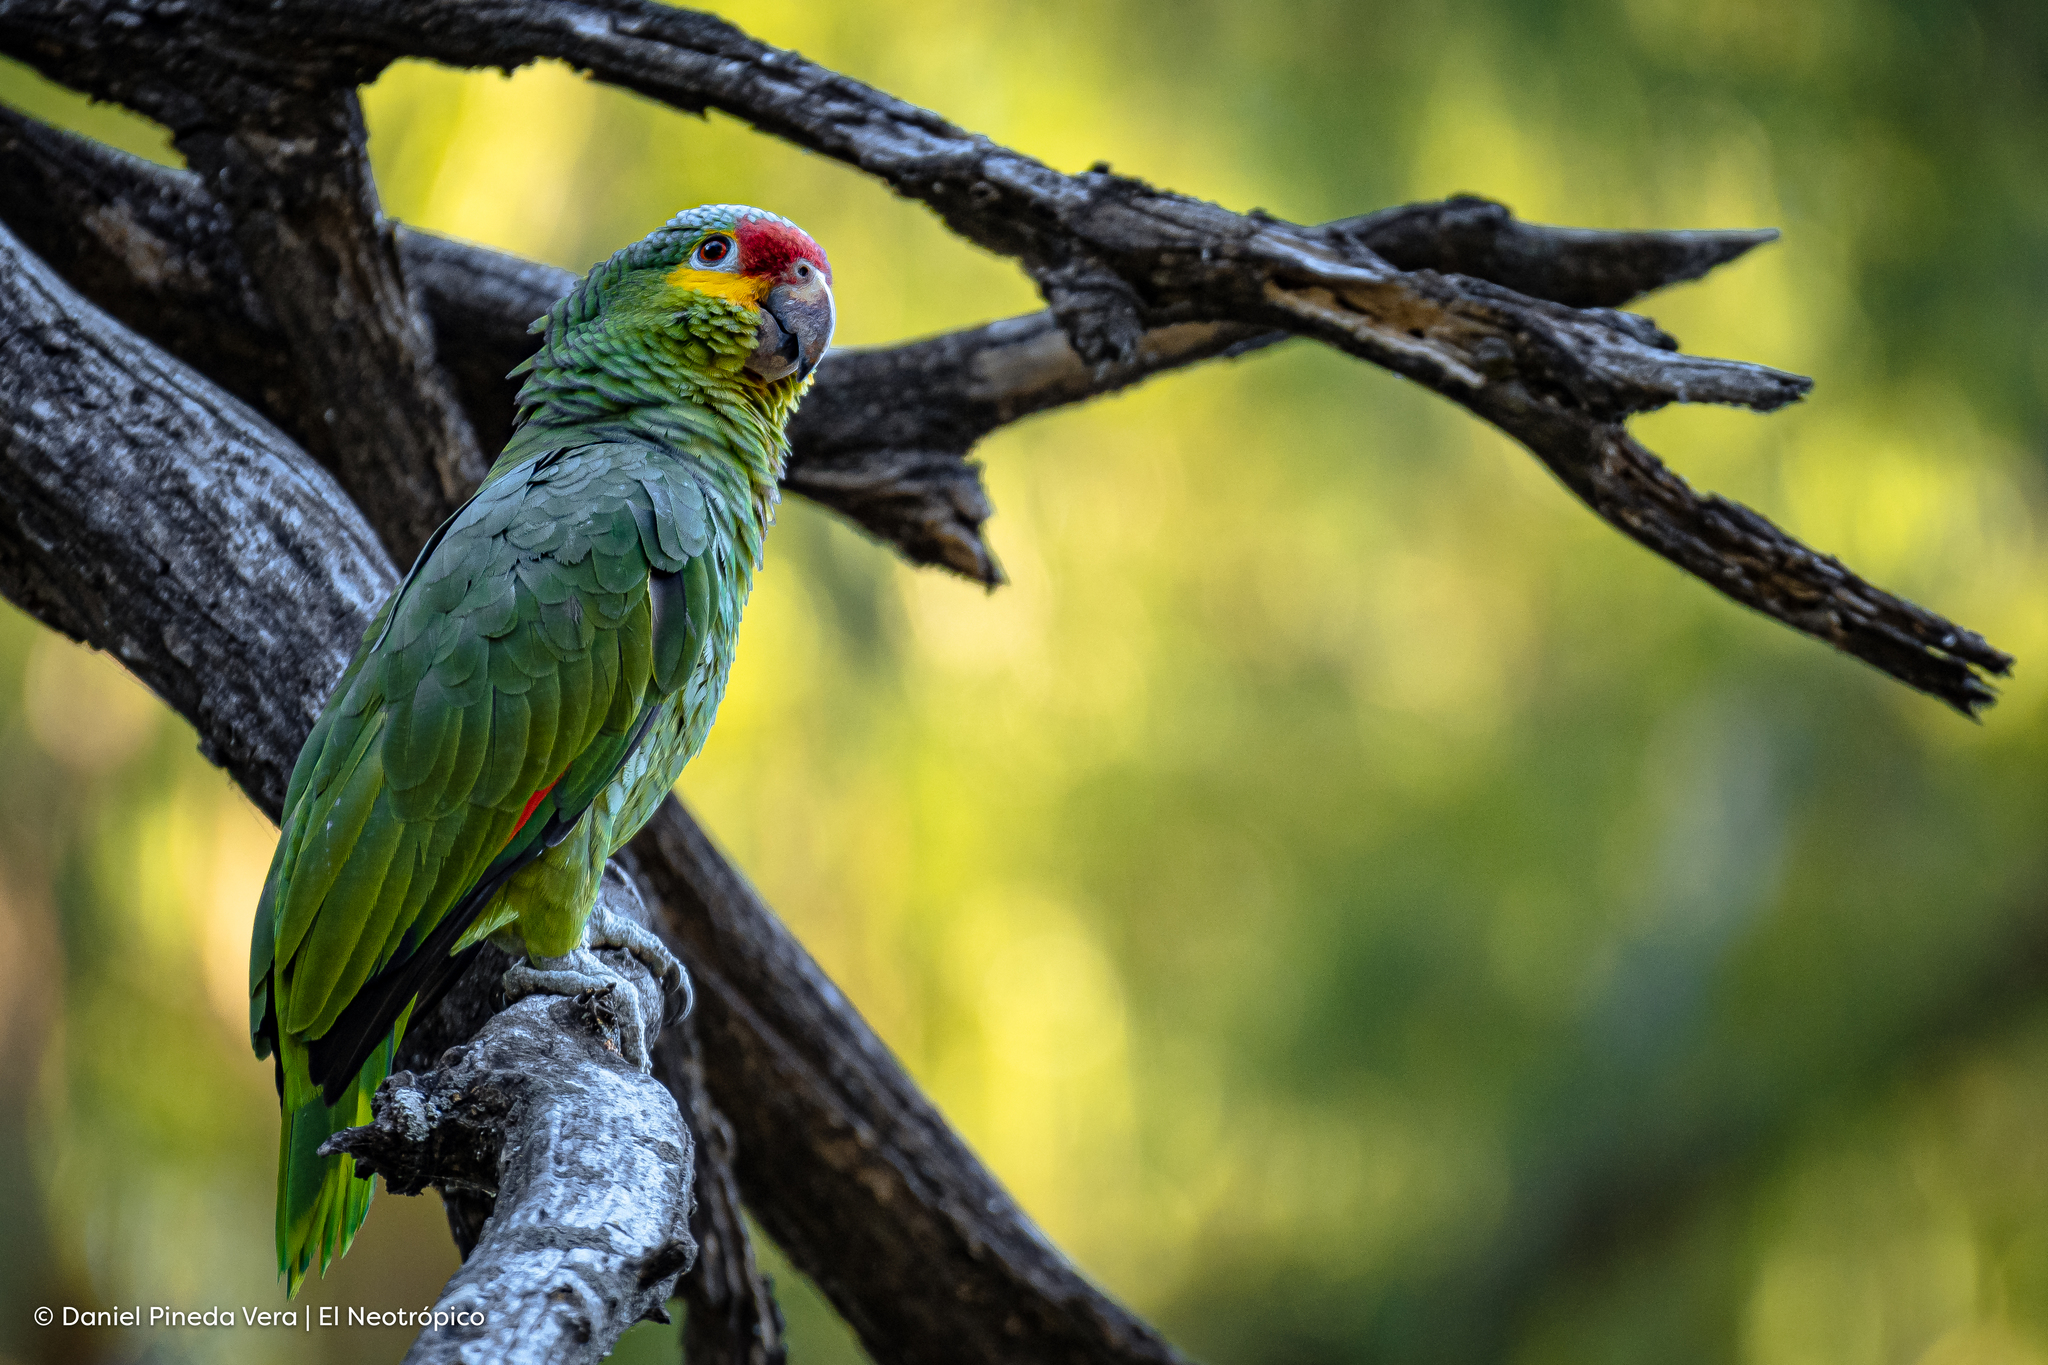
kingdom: Animalia
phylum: Chordata
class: Aves
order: Psittaciformes
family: Psittacidae
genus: Amazona
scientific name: Amazona autumnalis
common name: Red-lored amazon
